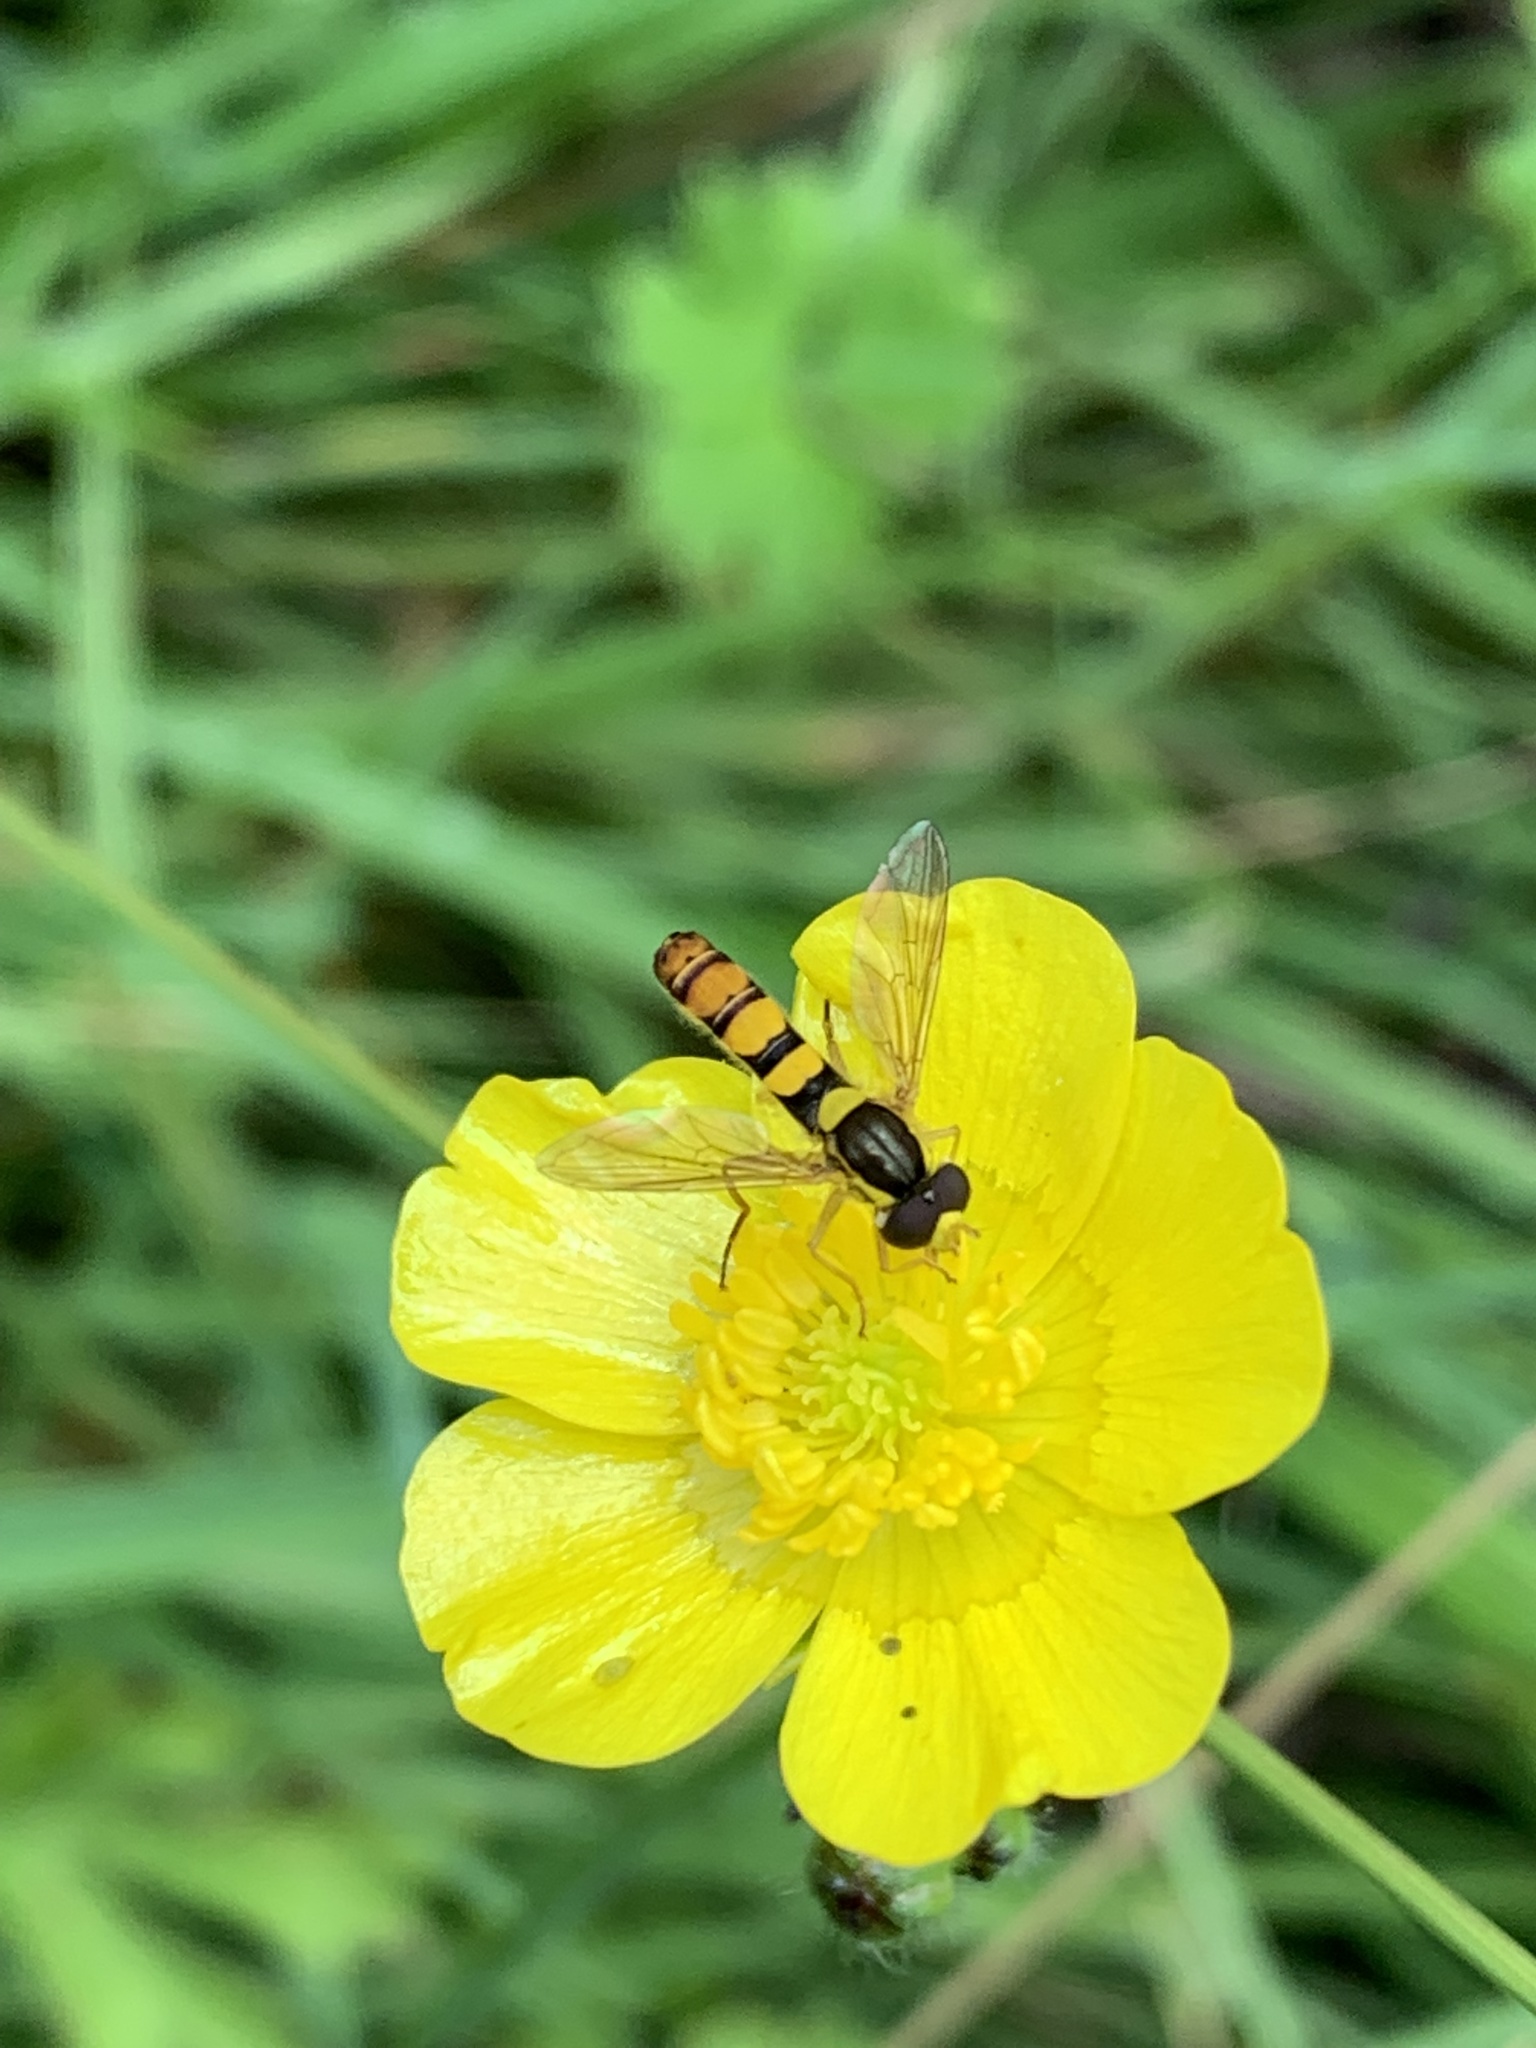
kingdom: Animalia
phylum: Arthropoda
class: Insecta
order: Diptera
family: Syrphidae
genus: Sphaerophoria
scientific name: Sphaerophoria
